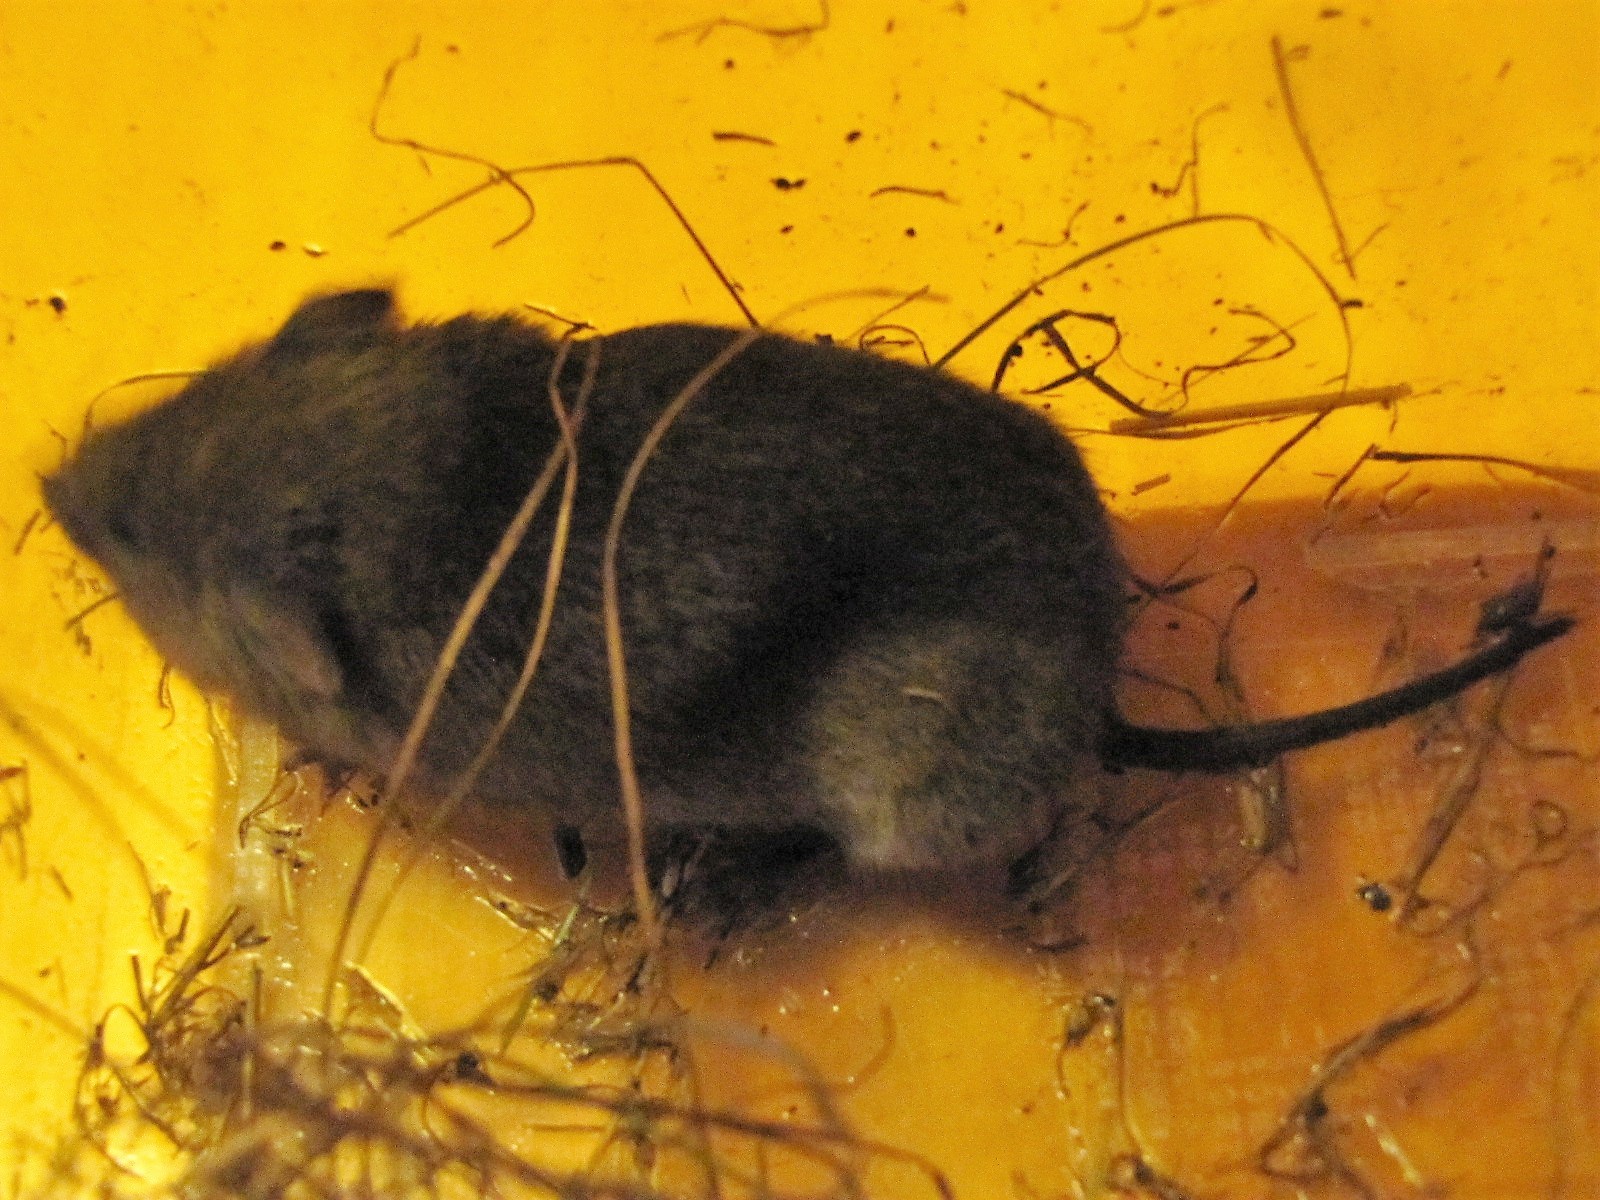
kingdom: Animalia
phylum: Chordata
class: Mammalia
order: Rodentia
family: Cricetidae
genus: Microtus
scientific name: Microtus pennsylvanicus
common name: Meadow vole
